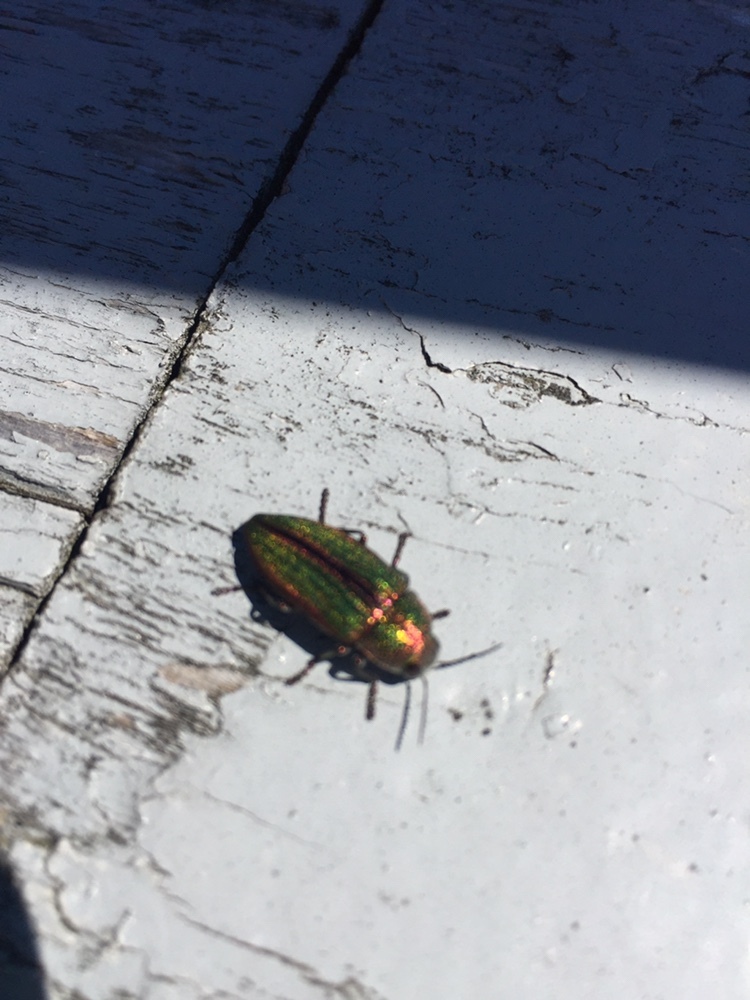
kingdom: Animalia
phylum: Arthropoda
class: Insecta
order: Coleoptera
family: Buprestidae
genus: Buprestis
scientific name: Buprestis aurulenta
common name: Golden buprestid
